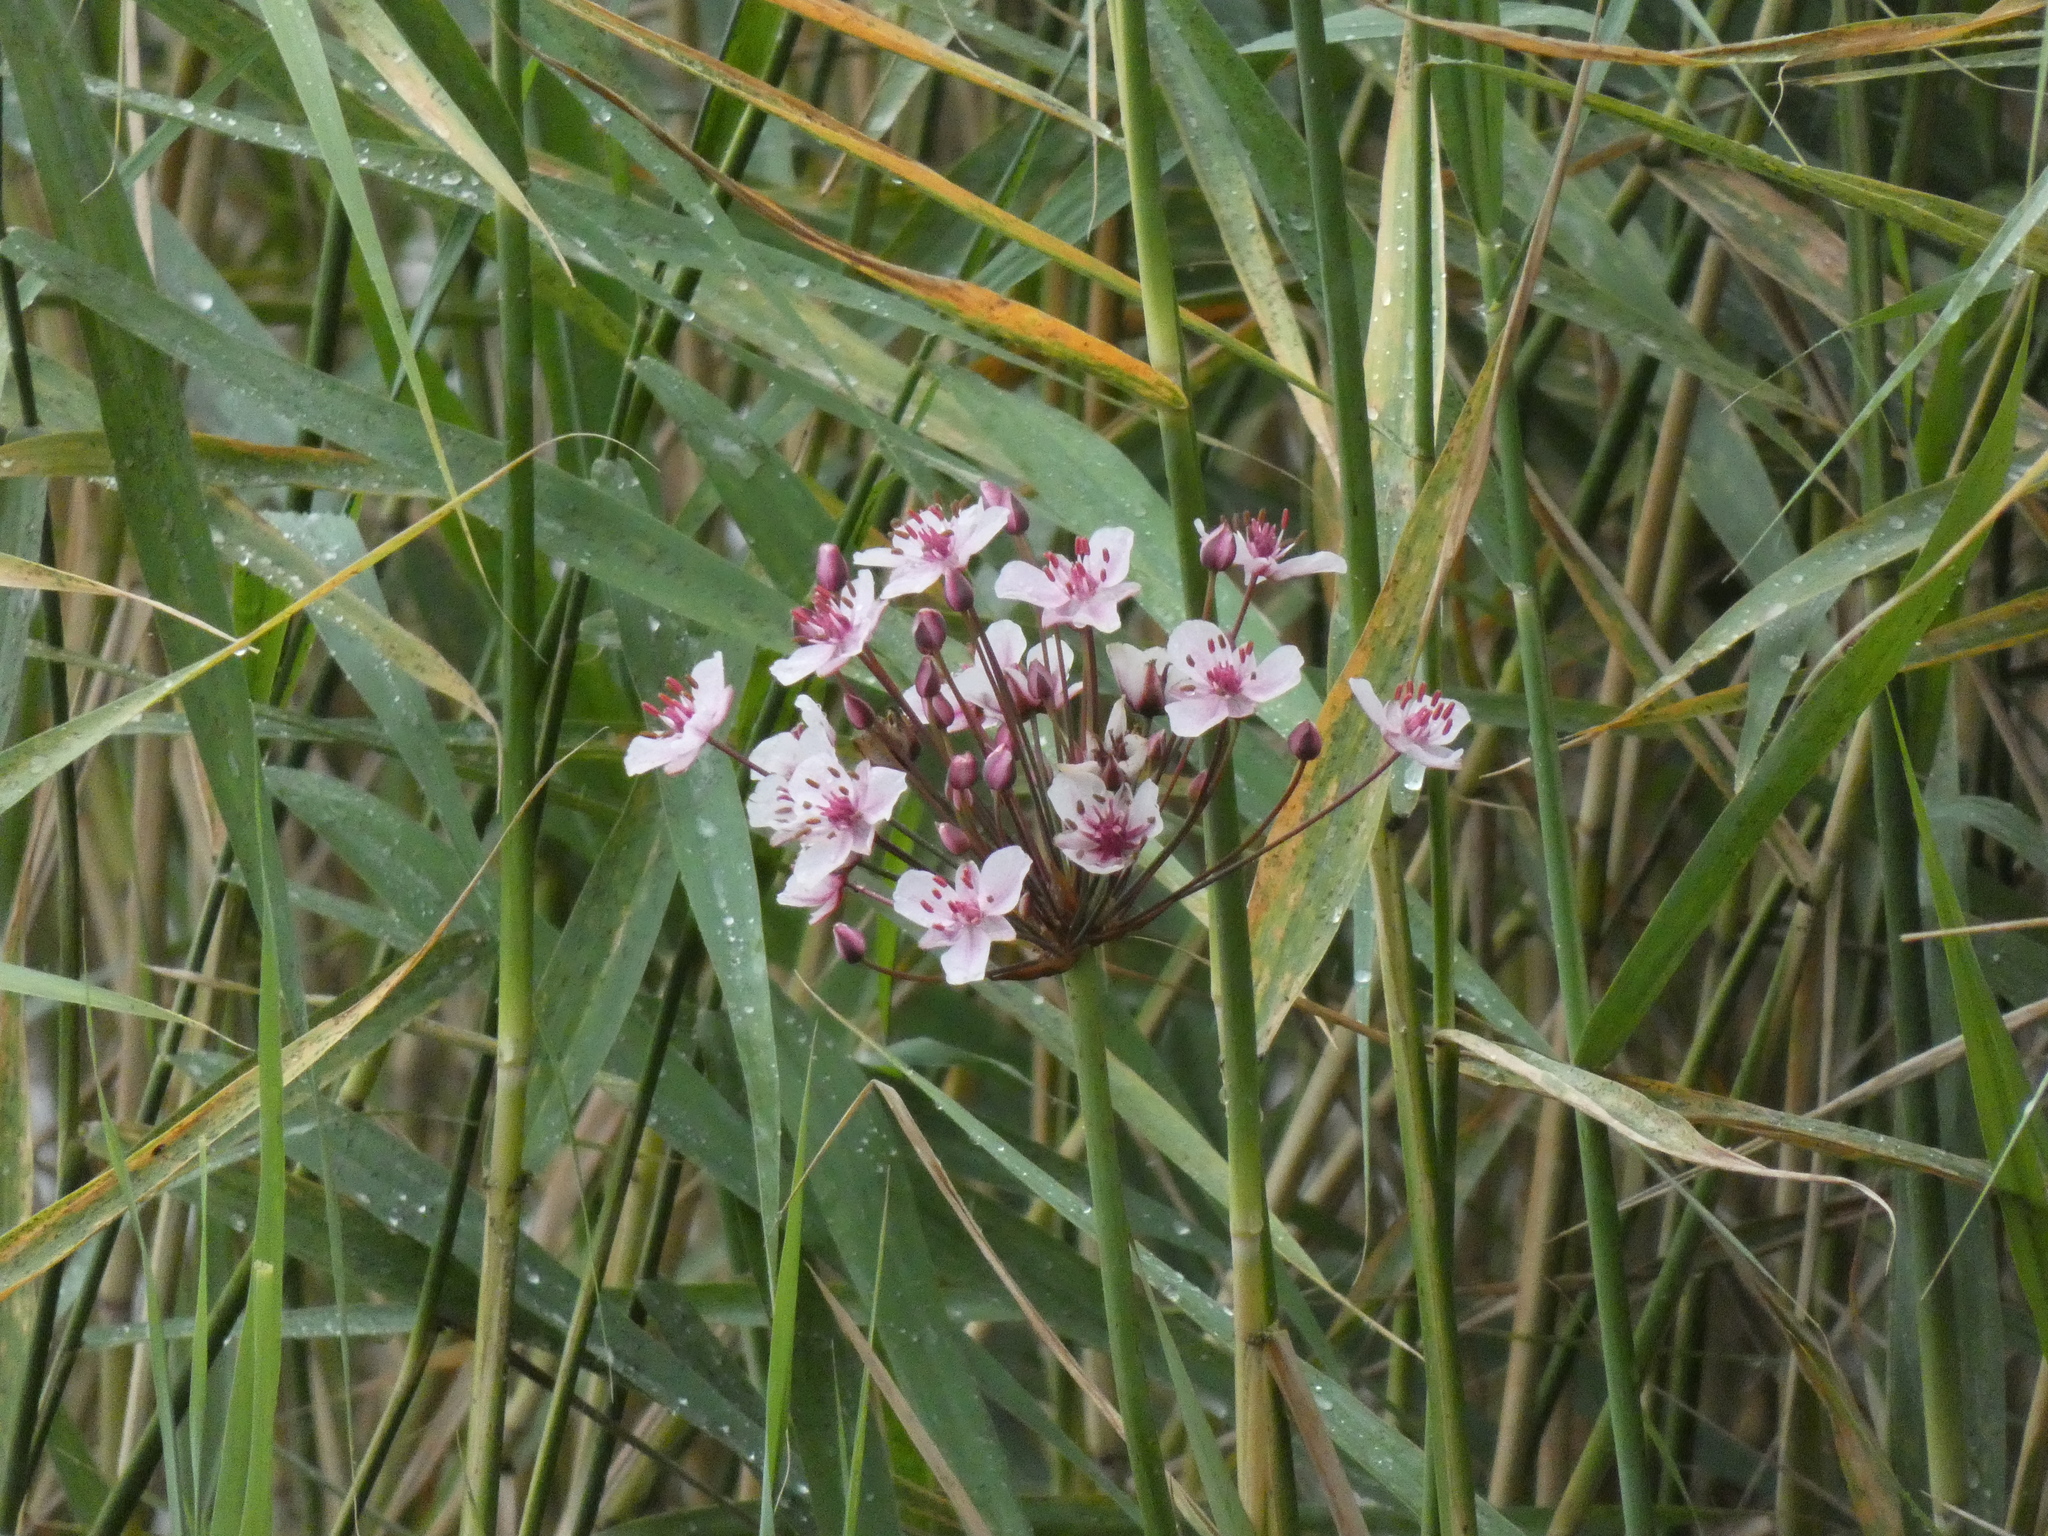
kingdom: Plantae
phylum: Tracheophyta
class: Liliopsida
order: Alismatales
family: Butomaceae
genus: Butomus
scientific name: Butomus umbellatus
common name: Flowering-rush
